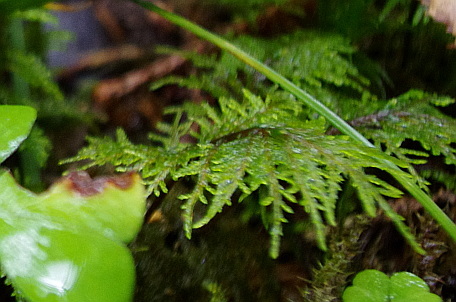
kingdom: Plantae
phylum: Bryophyta
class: Bryopsida
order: Hypnales
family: Hylocomiaceae
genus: Hylocomium
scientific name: Hylocomium splendens
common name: Stairstep moss
